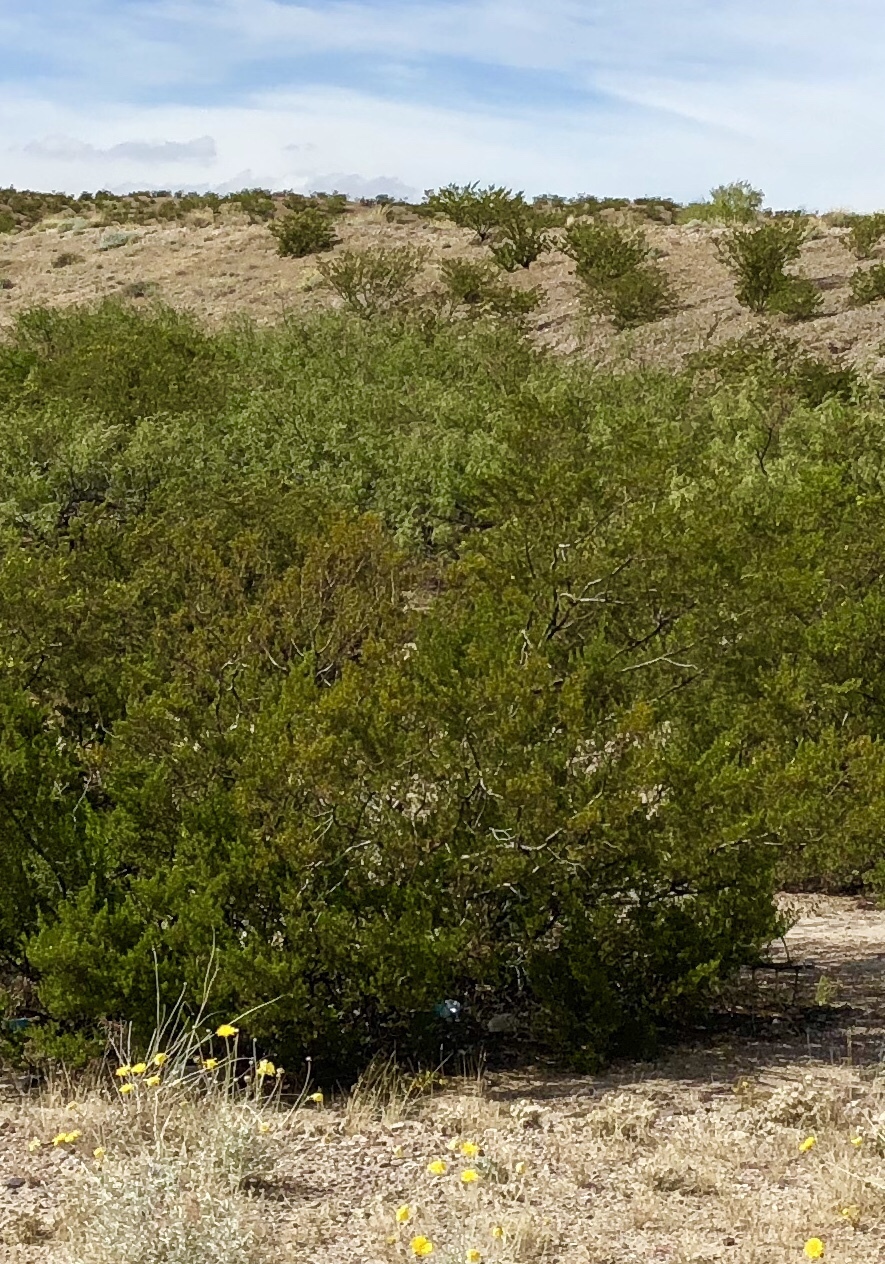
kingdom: Plantae
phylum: Tracheophyta
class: Magnoliopsida
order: Zygophyllales
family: Zygophyllaceae
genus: Larrea
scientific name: Larrea tridentata
